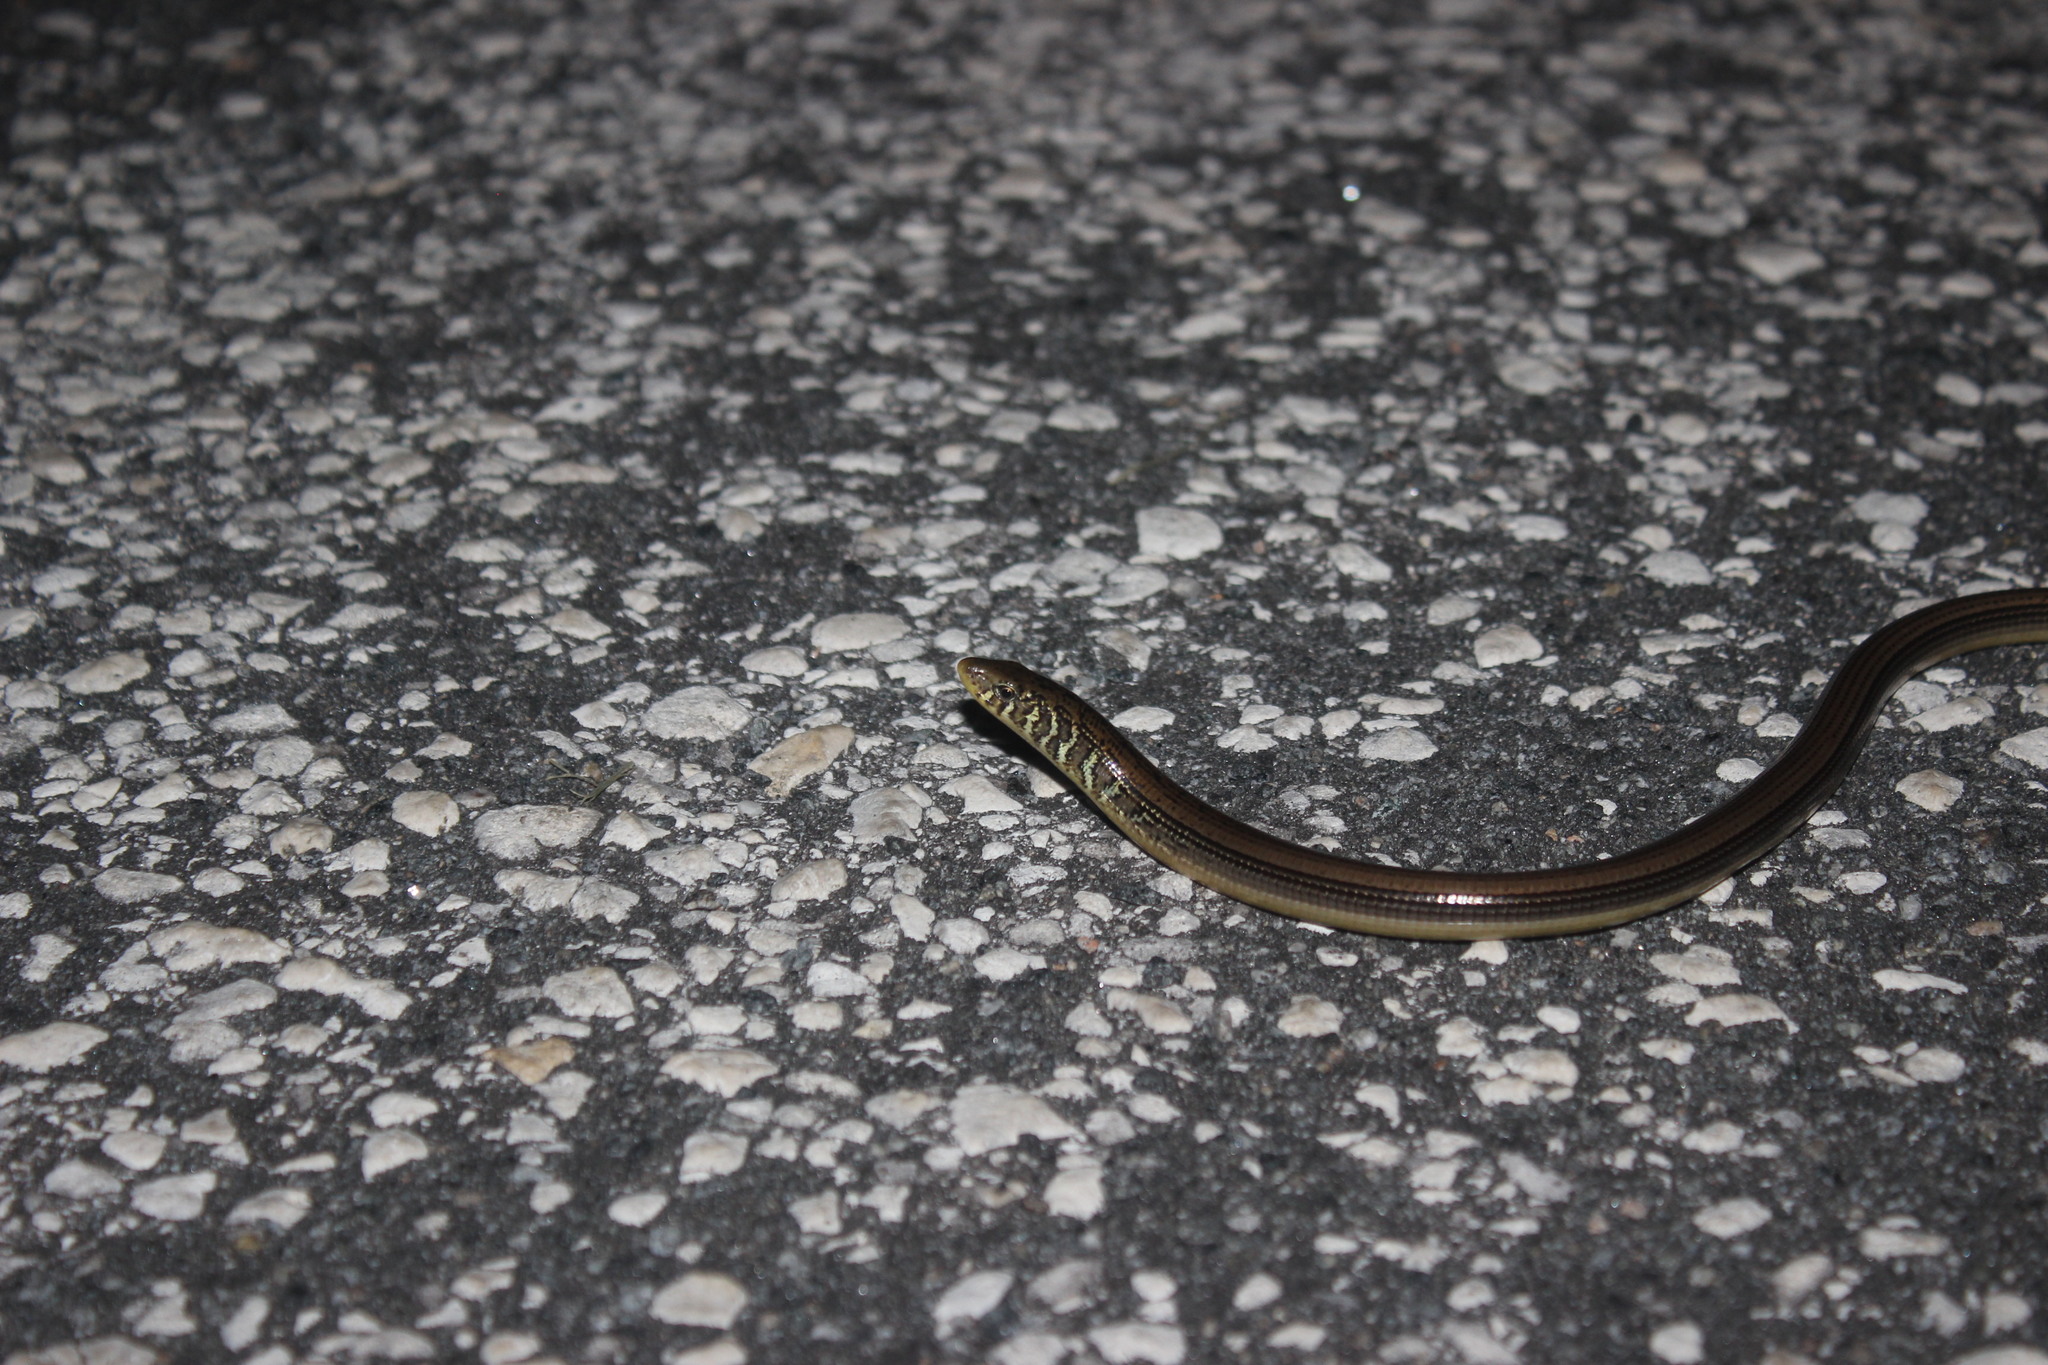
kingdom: Animalia
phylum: Chordata
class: Squamata
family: Anguidae
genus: Ophisaurus
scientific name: Ophisaurus ventralis
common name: Eastern glass lizard
